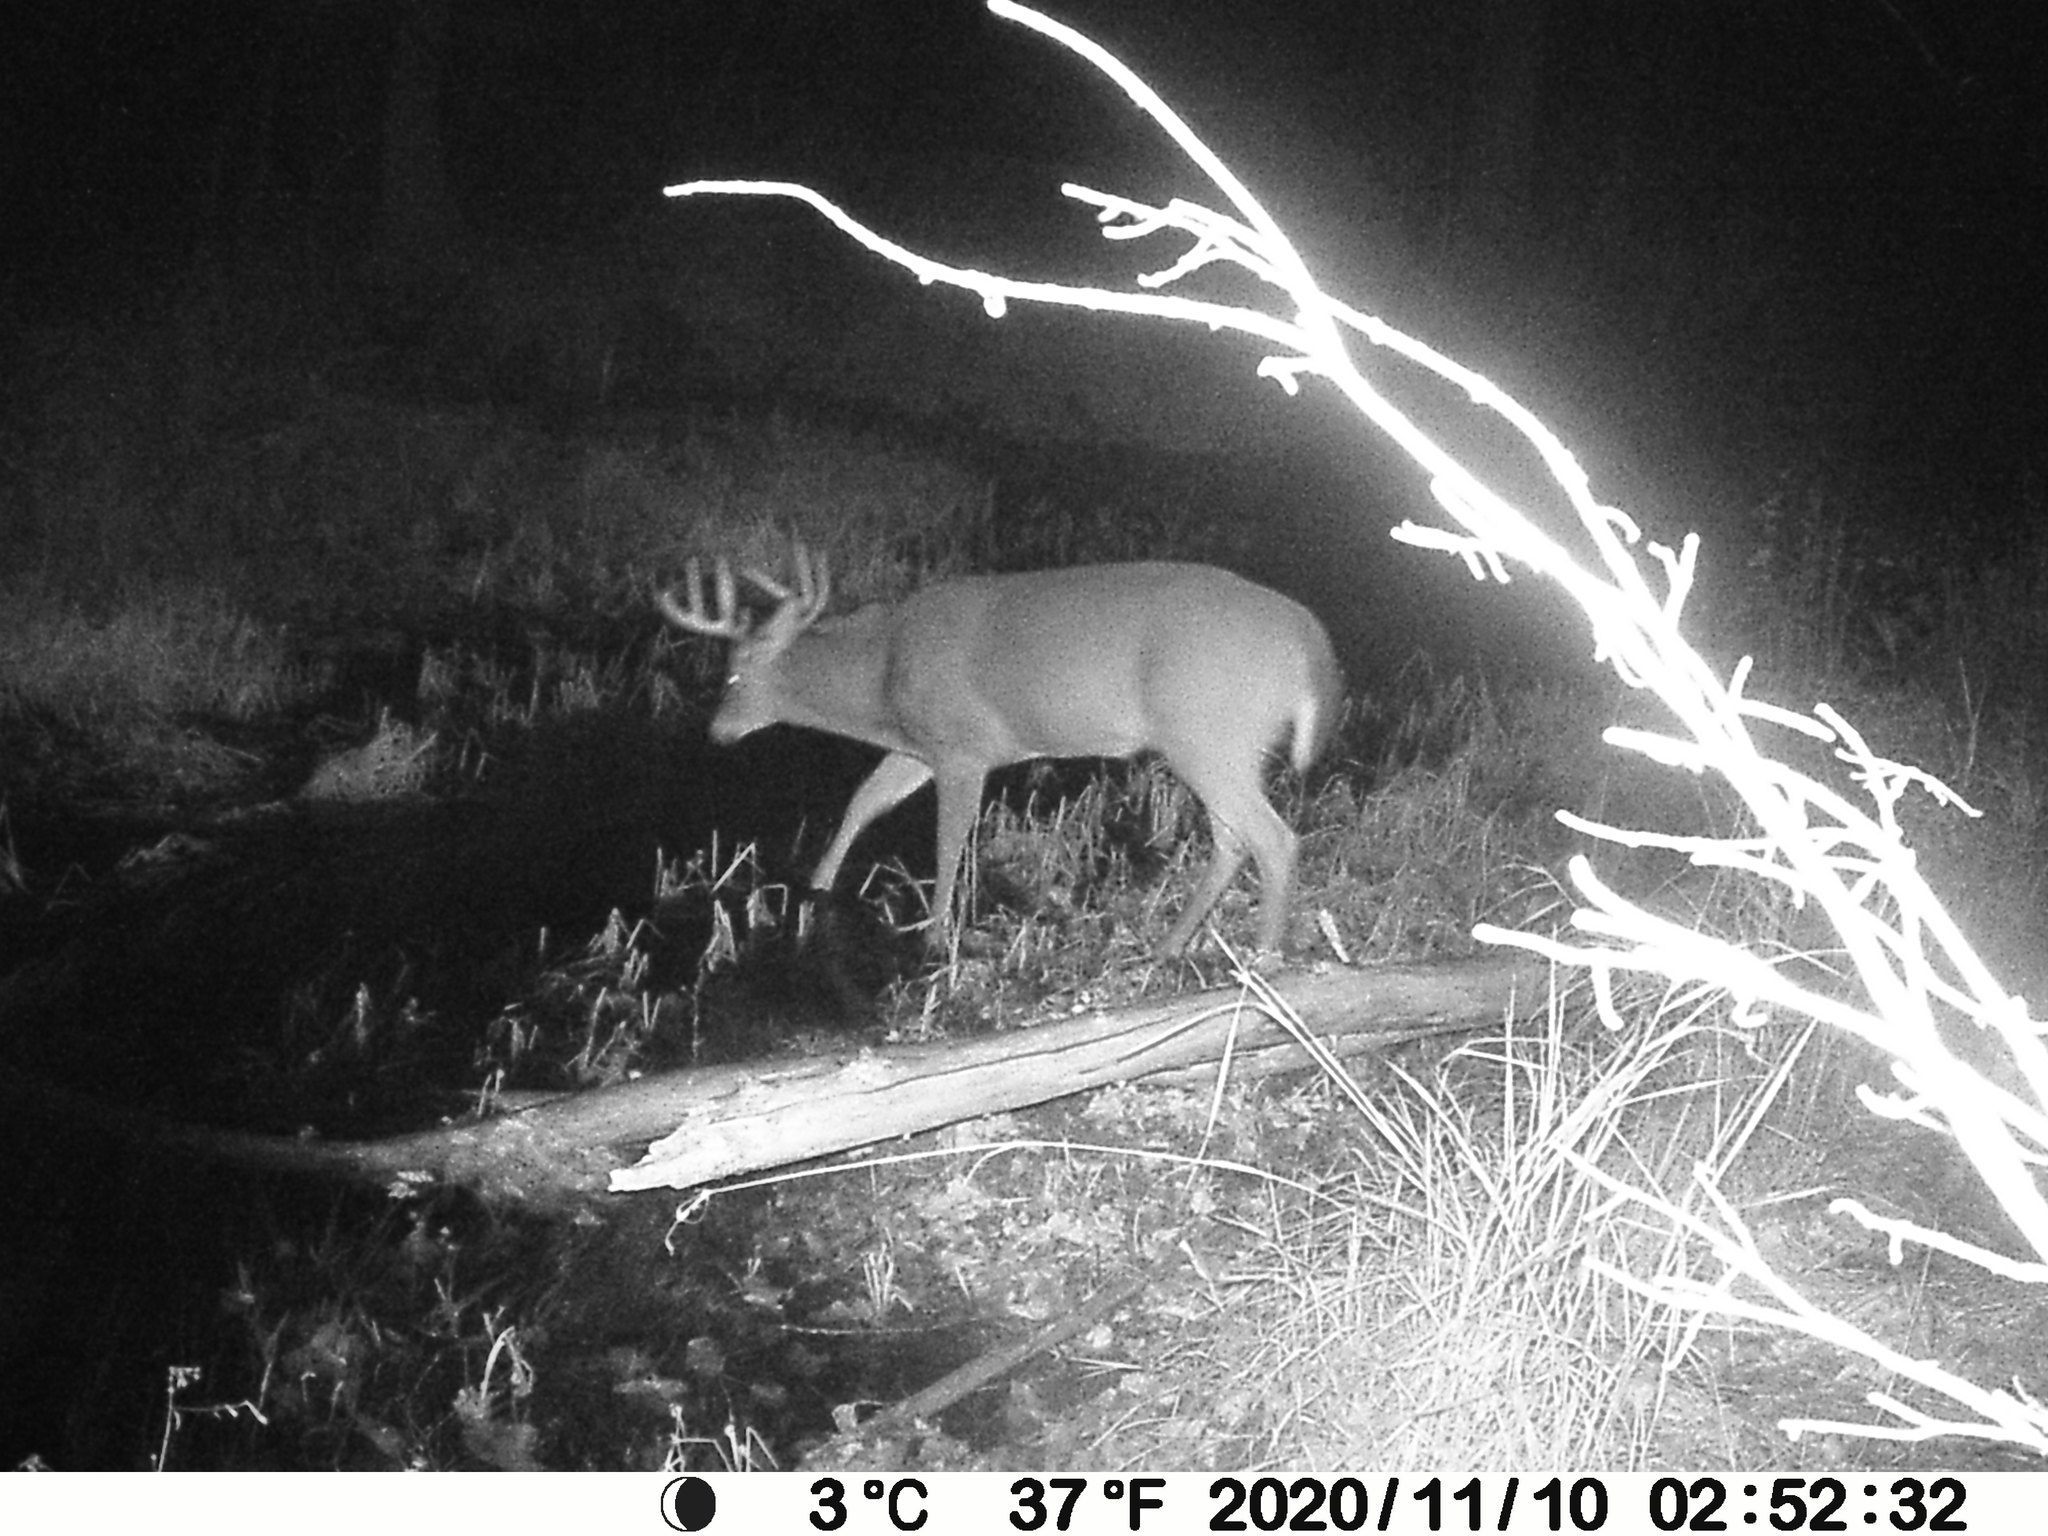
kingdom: Animalia
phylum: Chordata
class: Mammalia
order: Artiodactyla
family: Cervidae
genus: Odocoileus
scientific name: Odocoileus virginianus
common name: White-tailed deer
